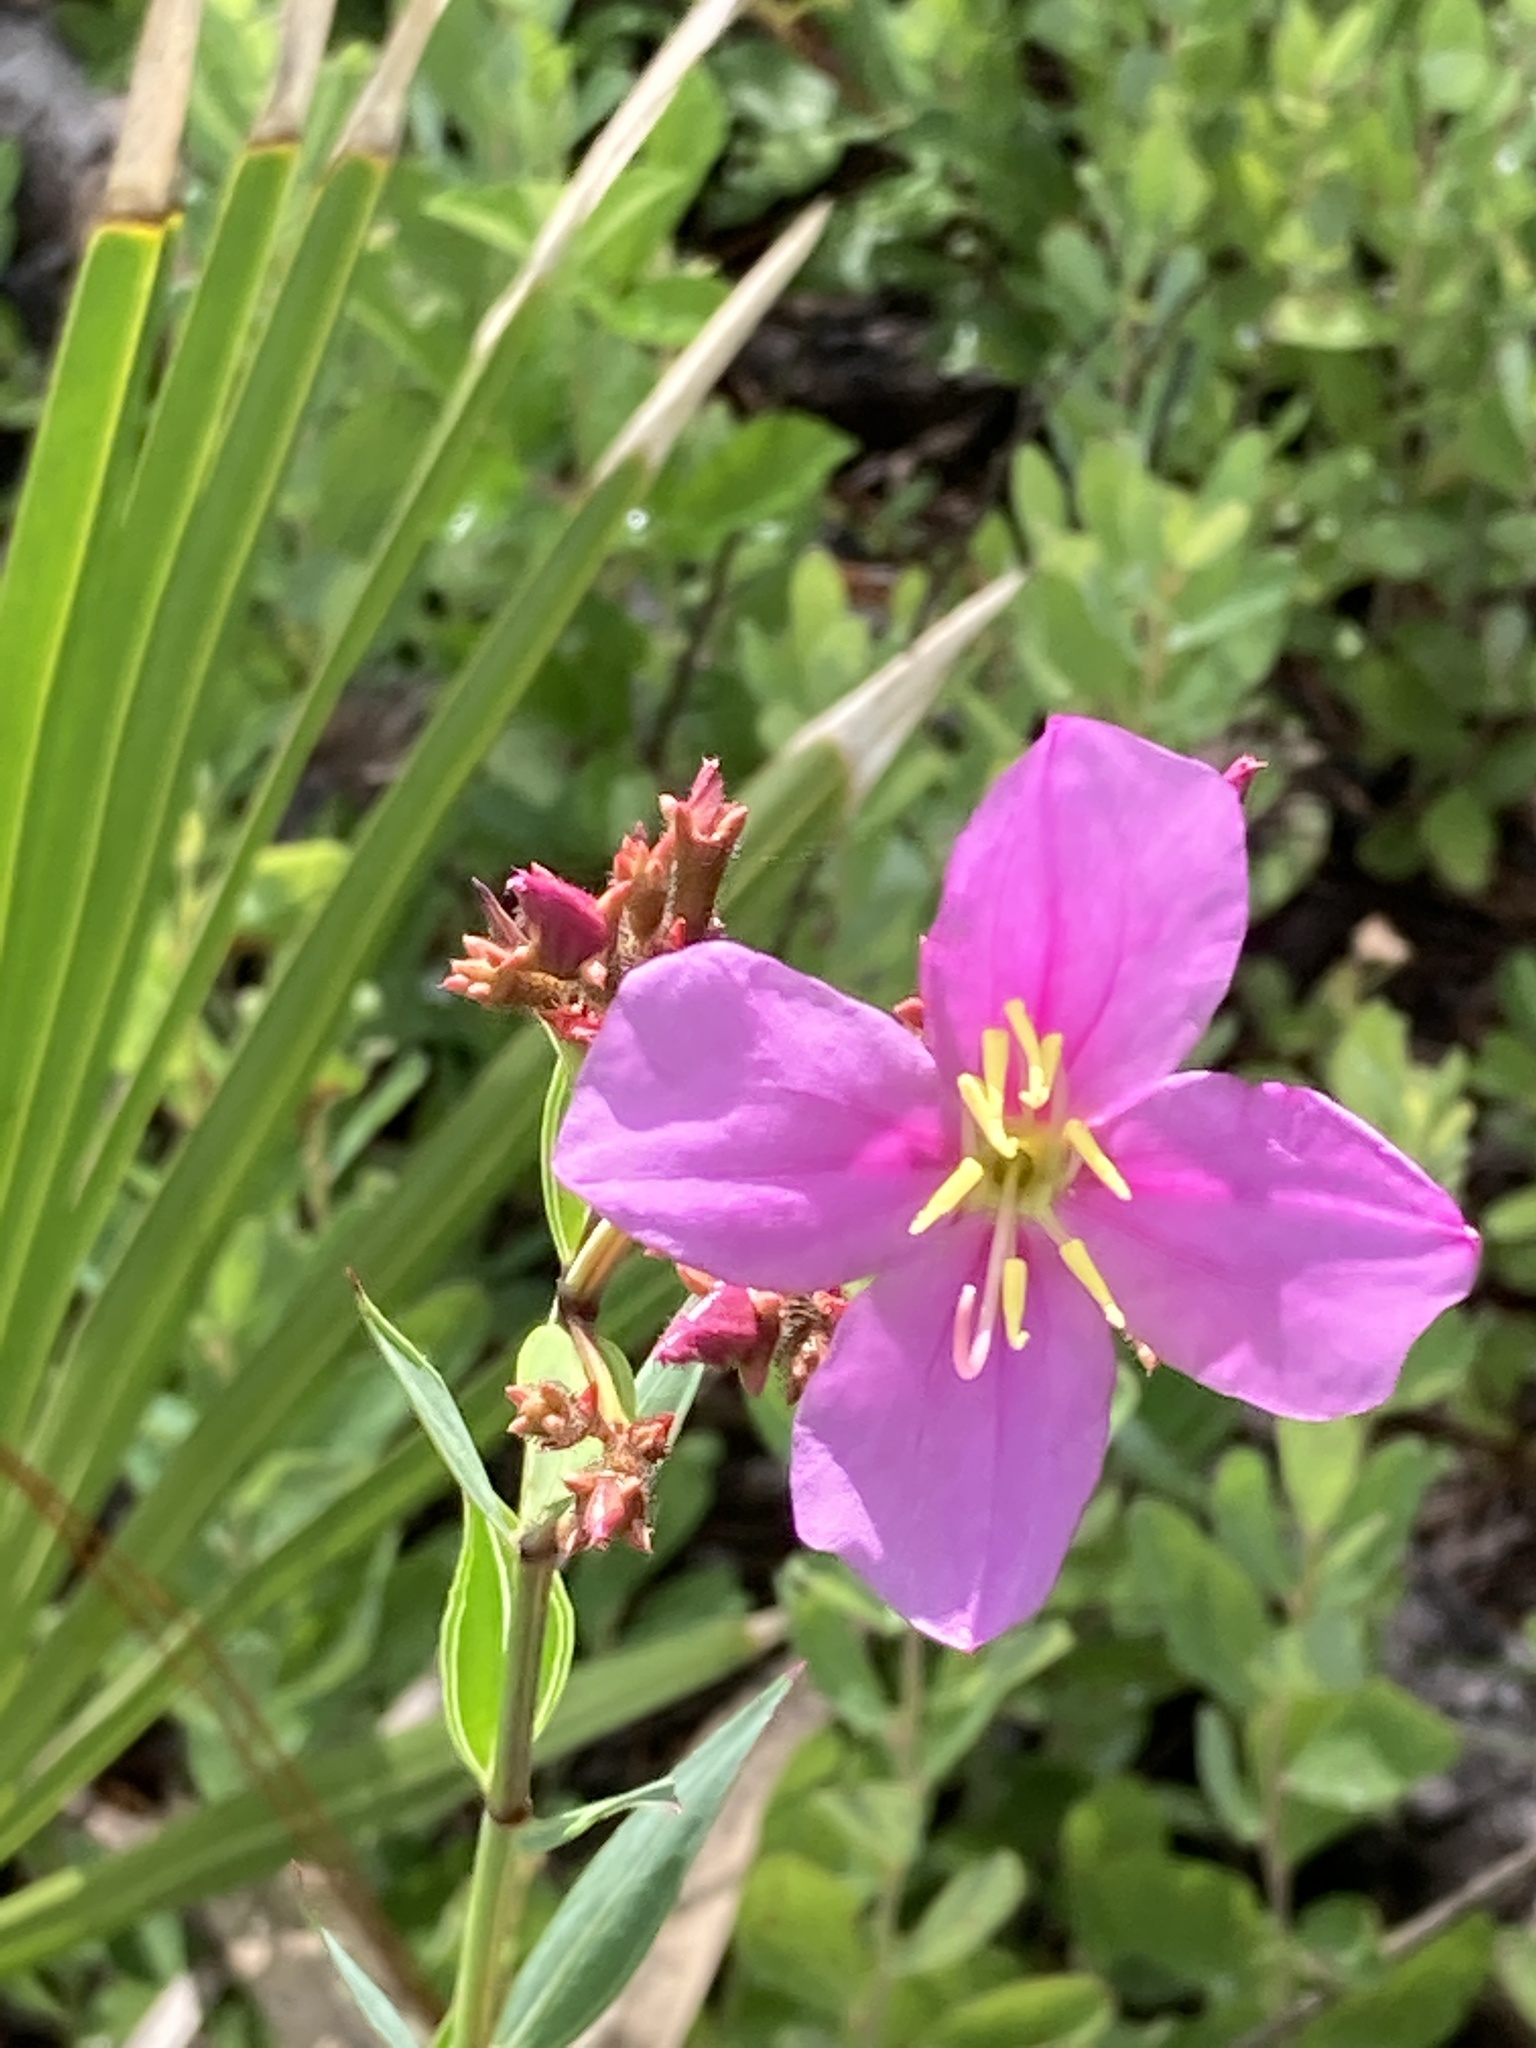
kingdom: Plantae
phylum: Tracheophyta
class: Magnoliopsida
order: Myrtales
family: Melastomataceae
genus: Rhexia
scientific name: Rhexia alifanus
